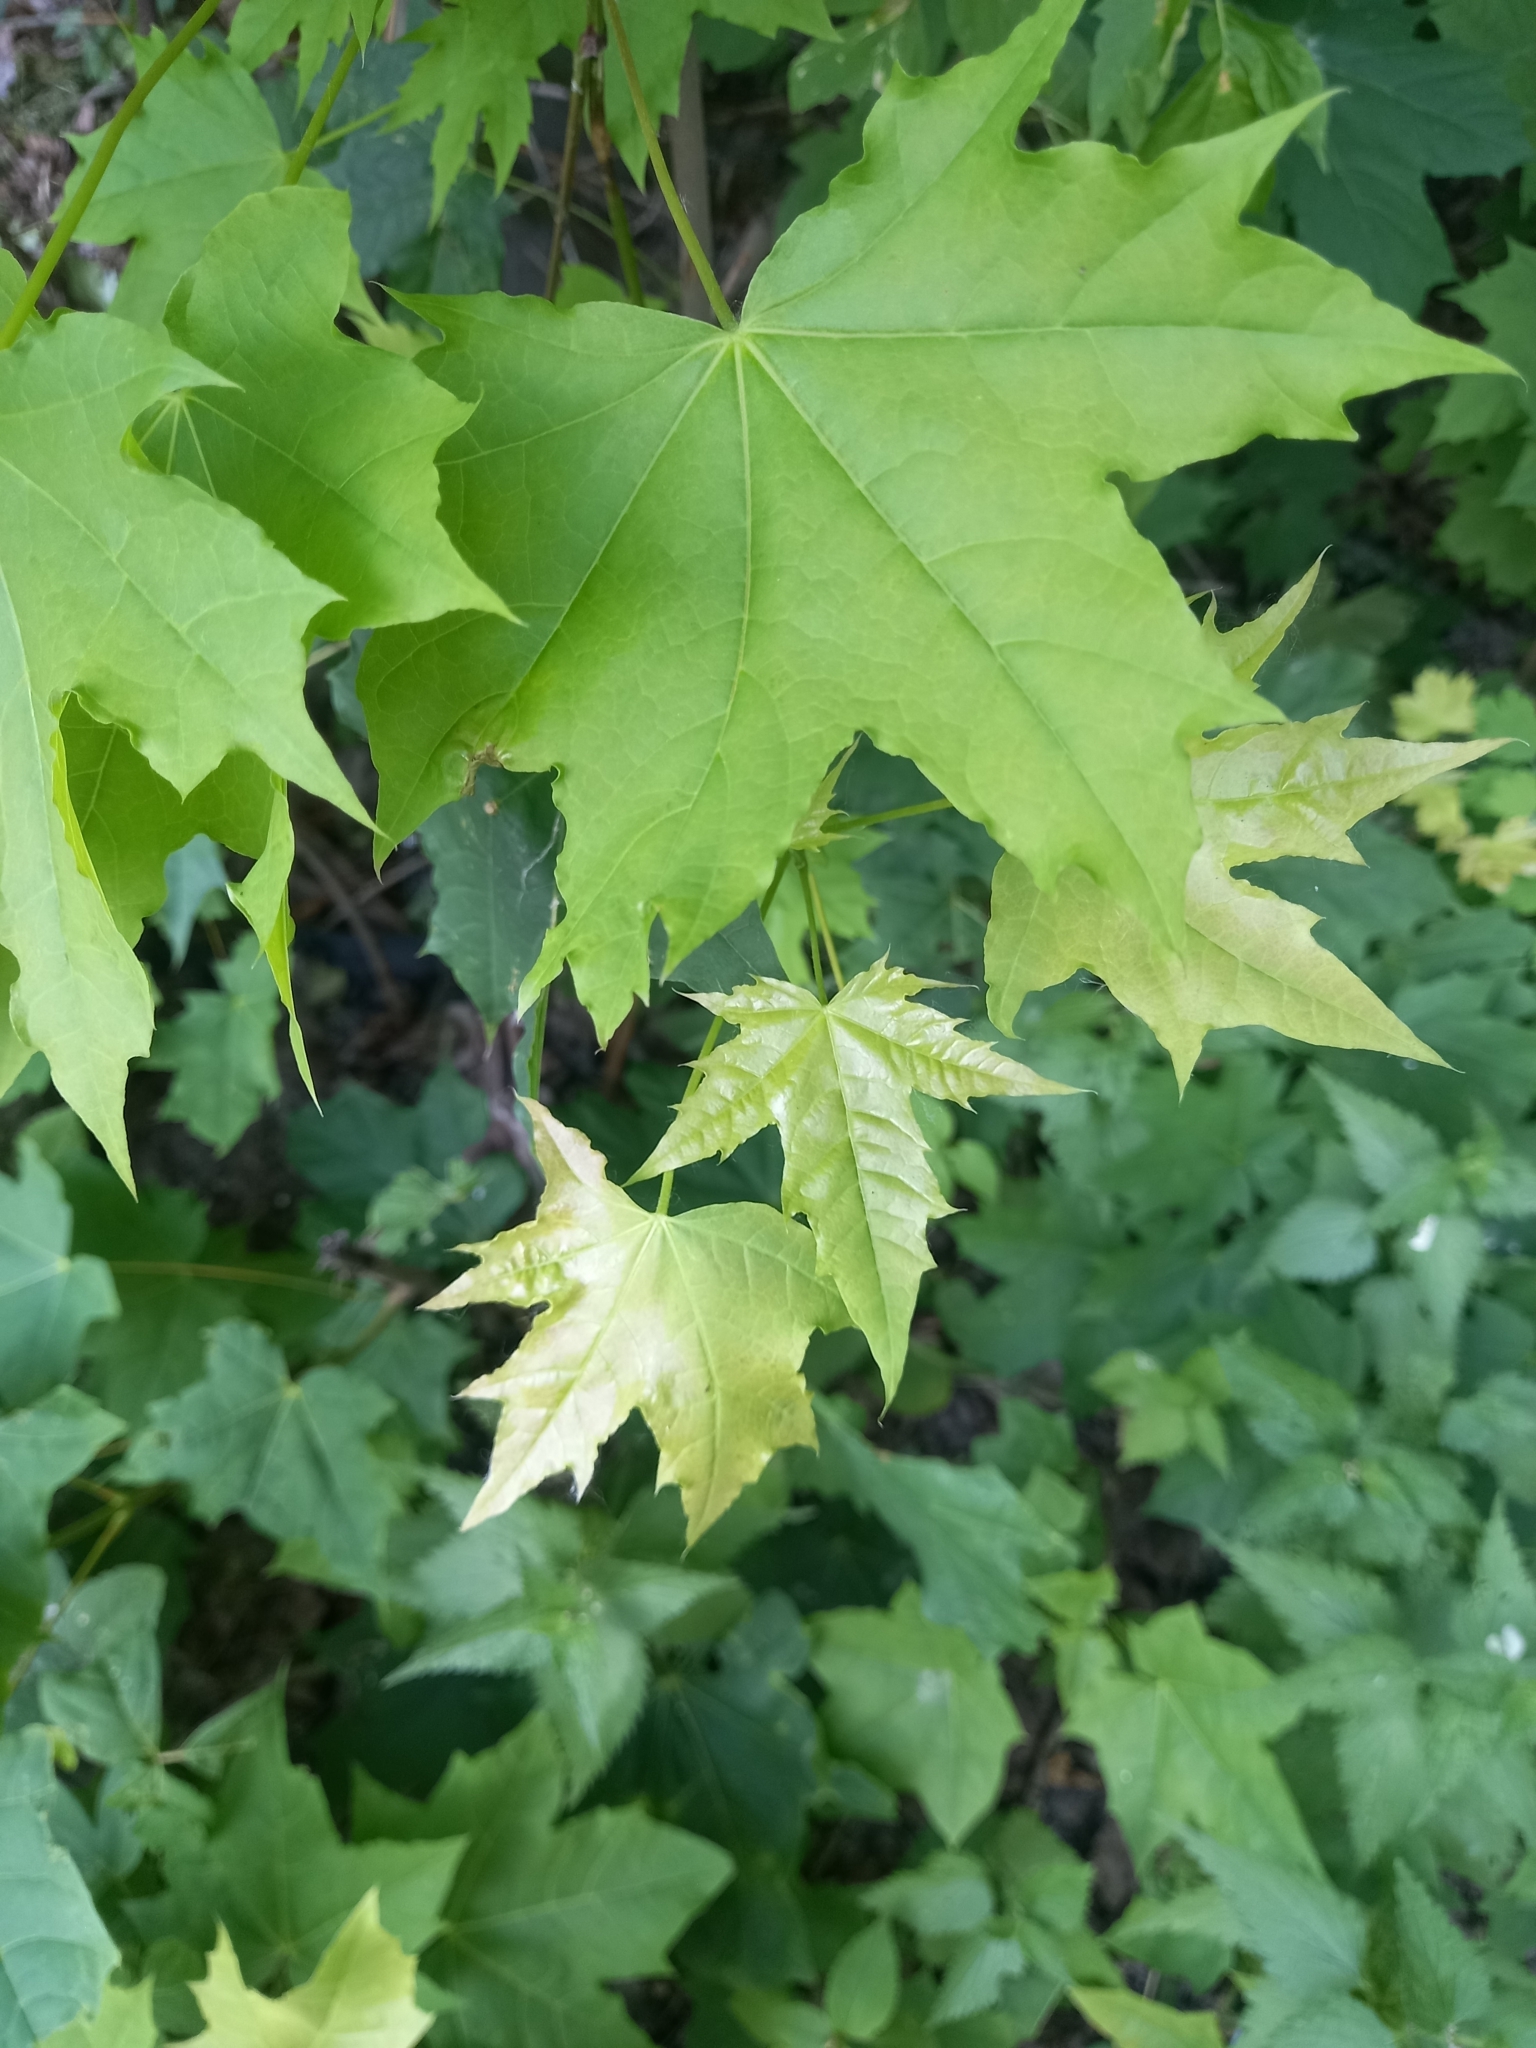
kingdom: Plantae
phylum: Tracheophyta
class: Magnoliopsida
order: Sapindales
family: Sapindaceae
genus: Acer
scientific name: Acer platanoides
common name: Norway maple
